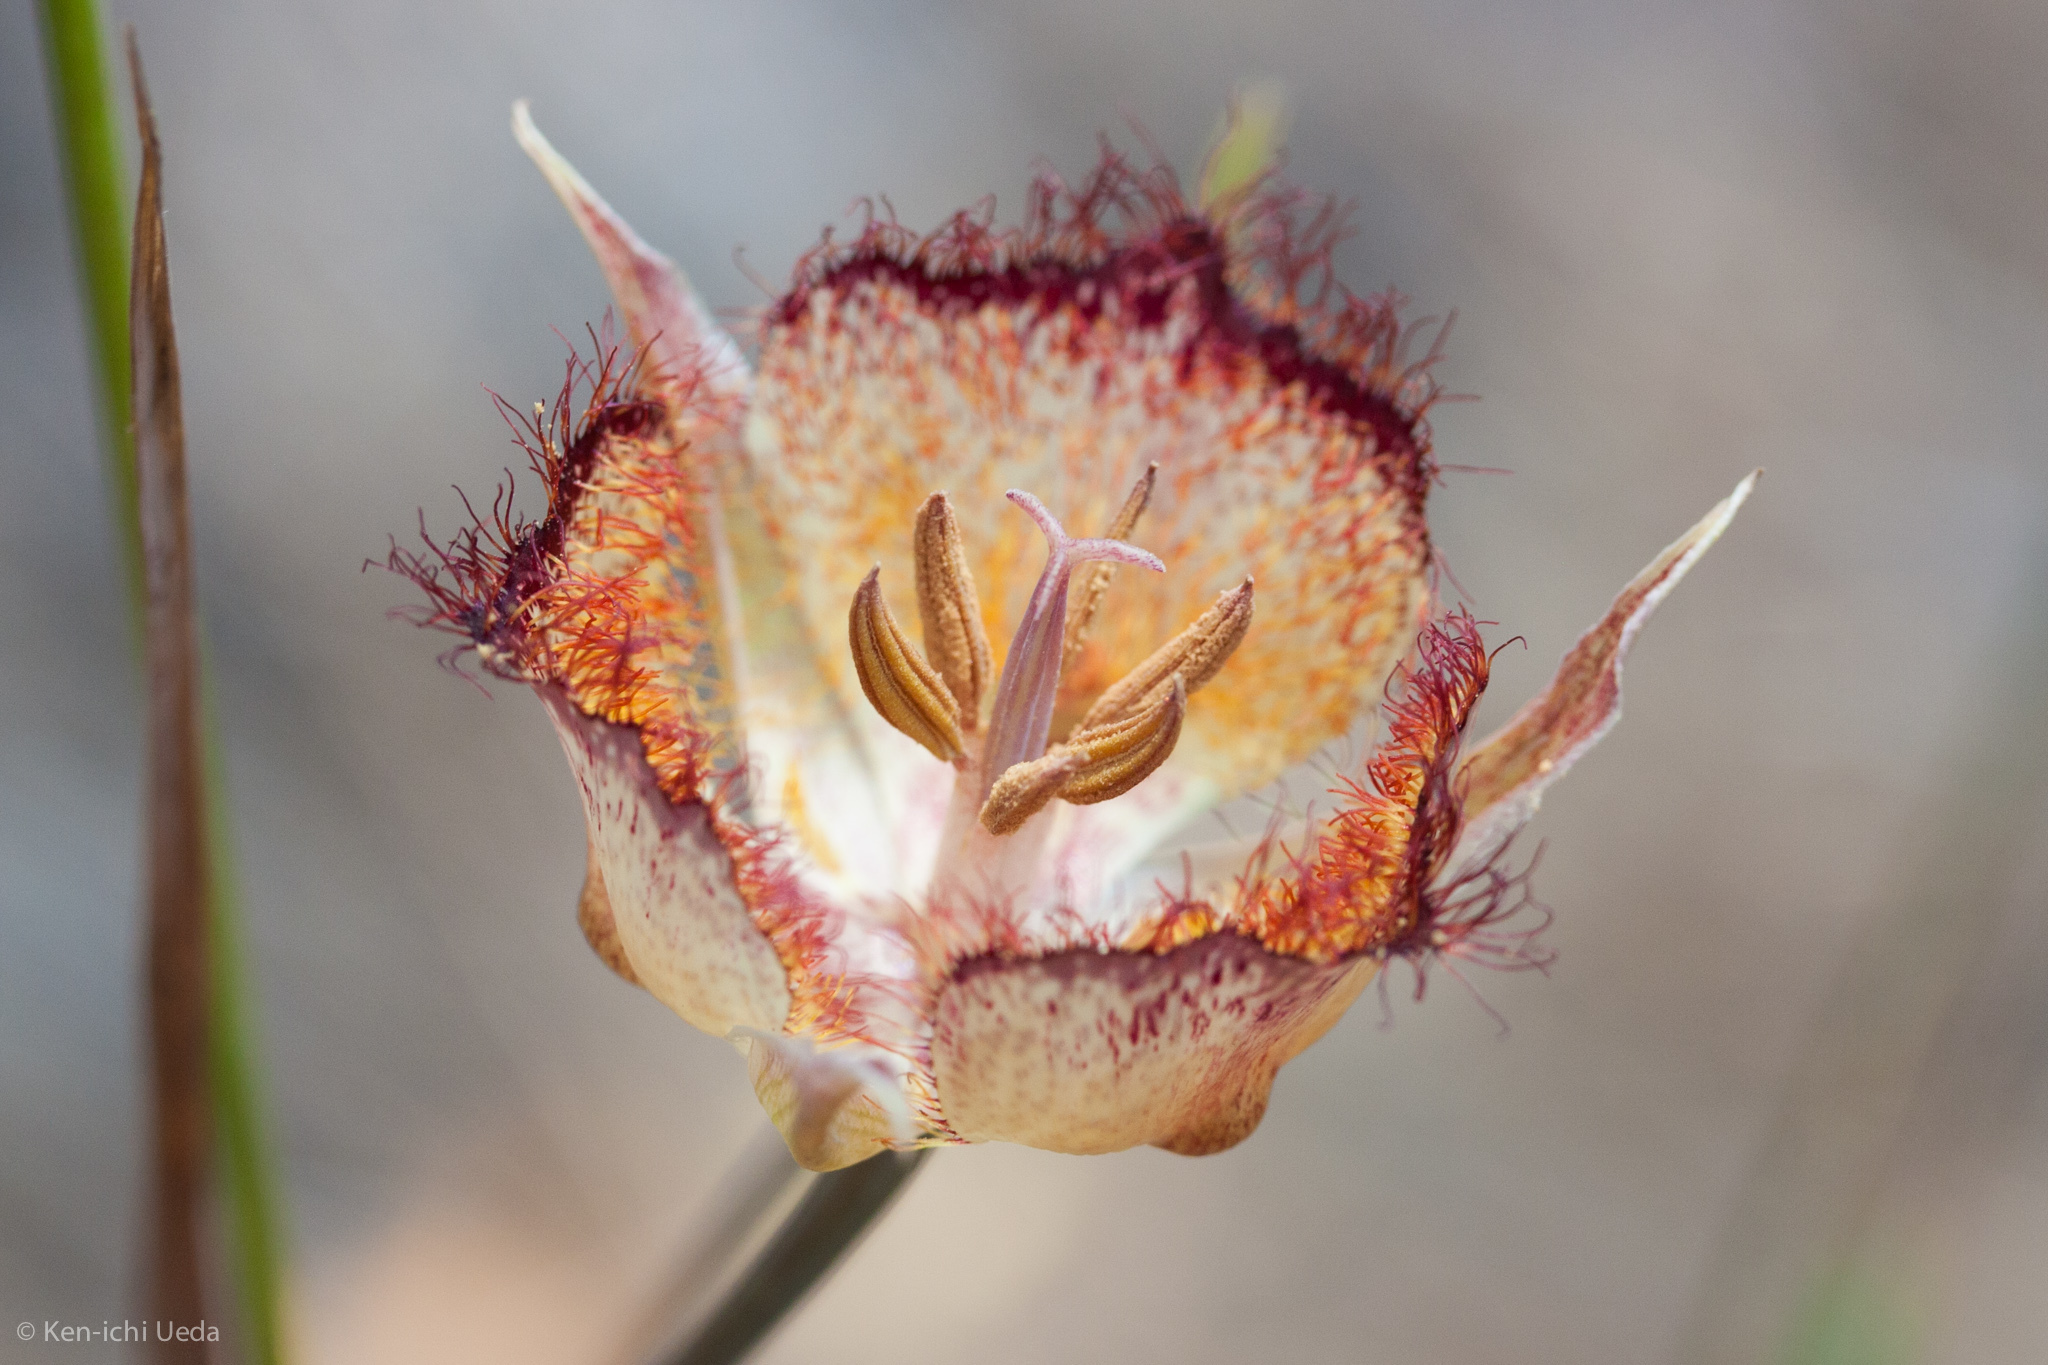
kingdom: Plantae
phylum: Tracheophyta
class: Liliopsida
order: Liliales
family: Liliaceae
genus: Calochortus
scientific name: Calochortus fimbriatus
